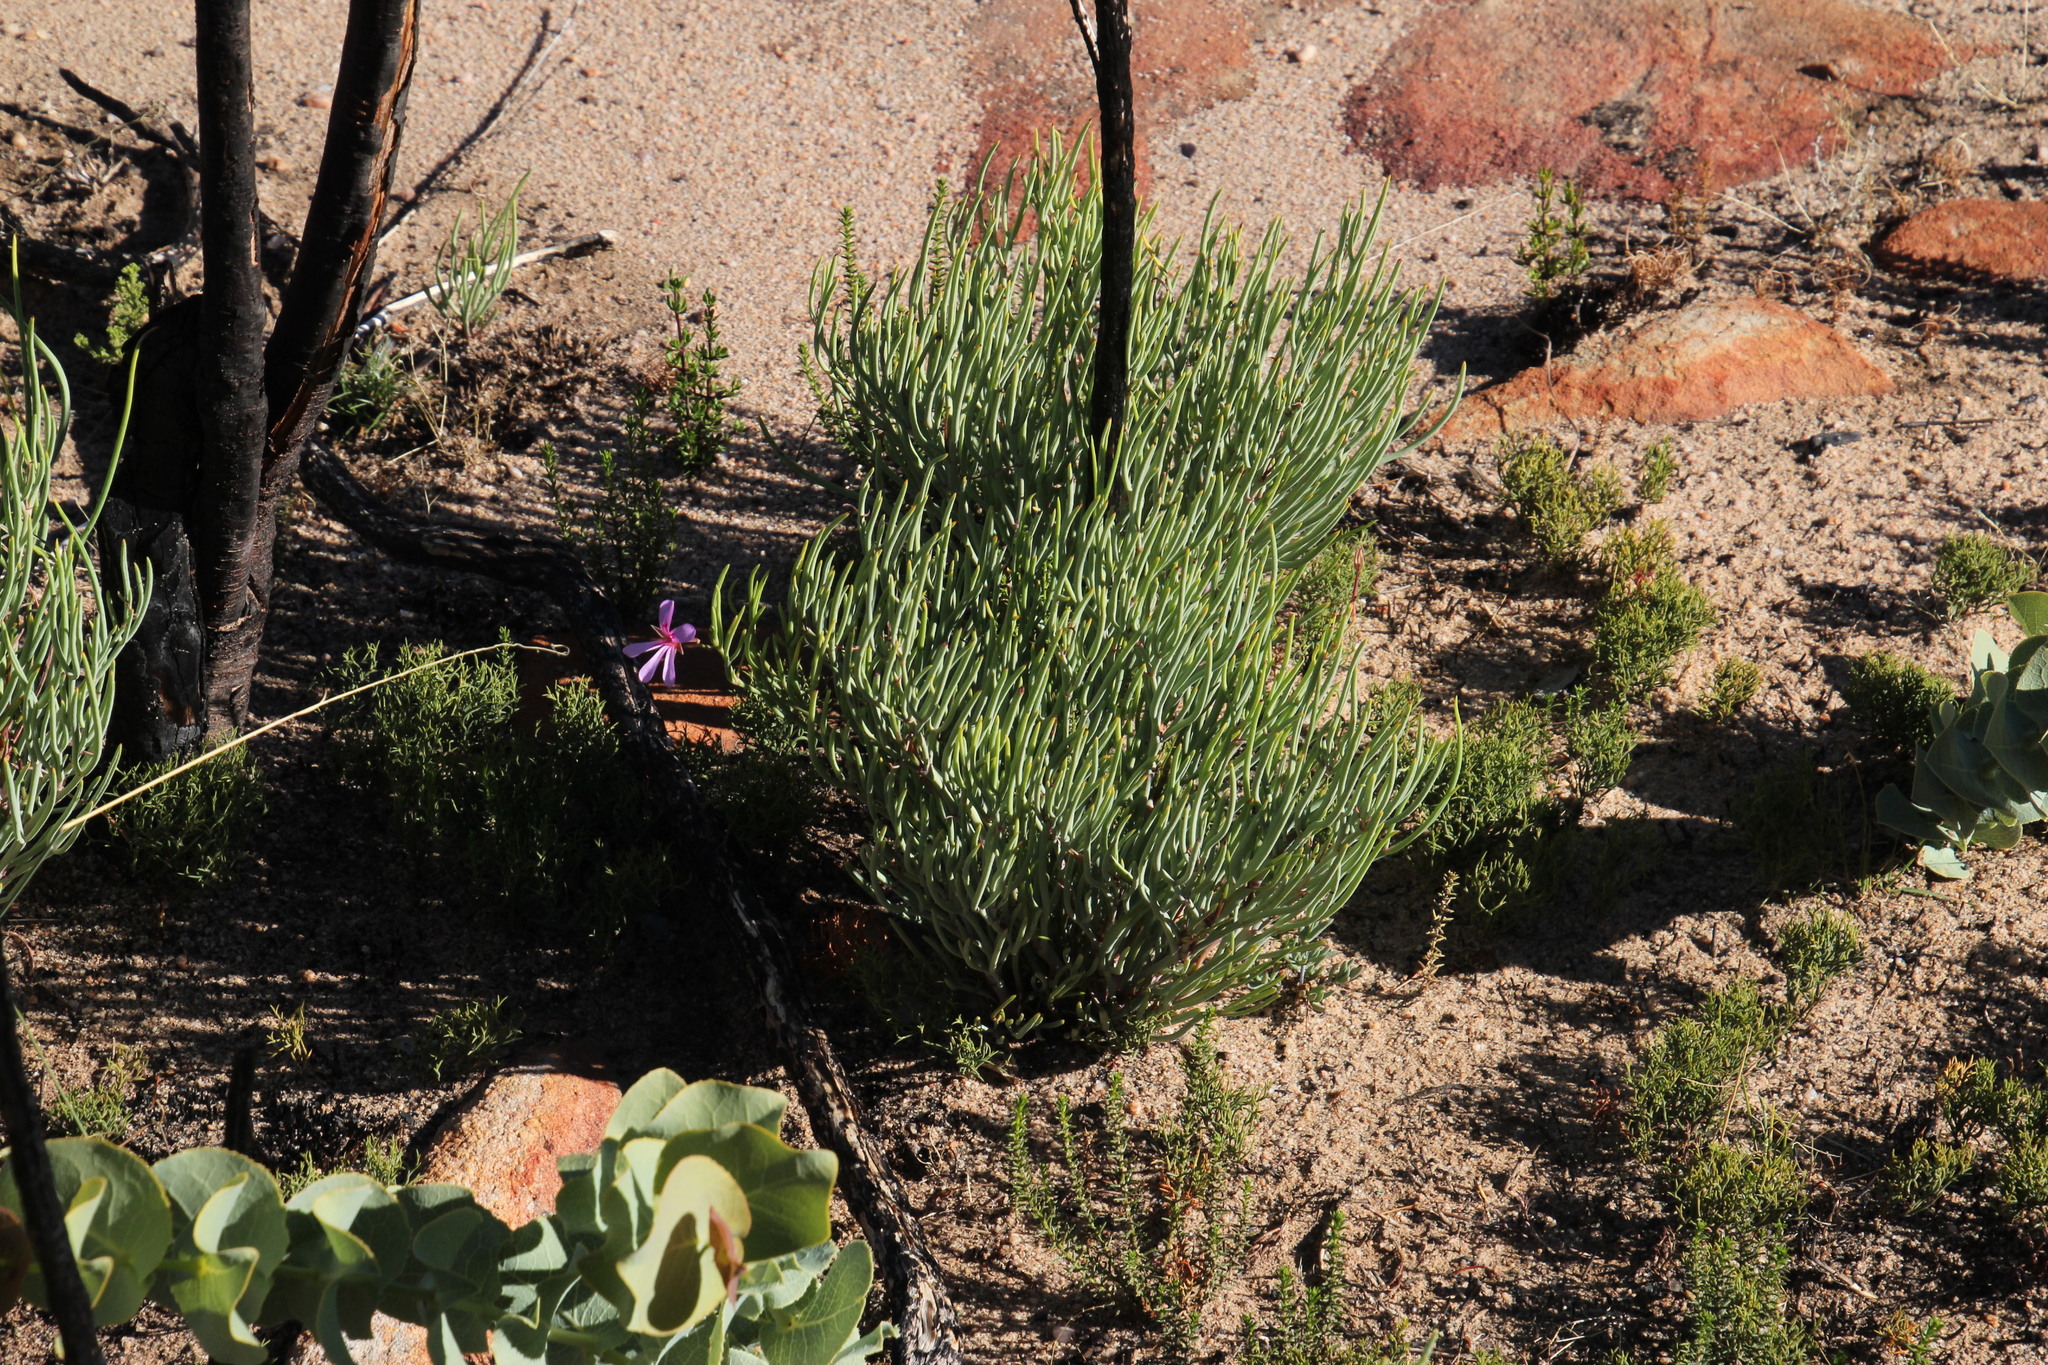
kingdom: Plantae
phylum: Tracheophyta
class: Magnoliopsida
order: Geraniales
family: Geraniaceae
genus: Pelargonium
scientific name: Pelargonium laevigatum
